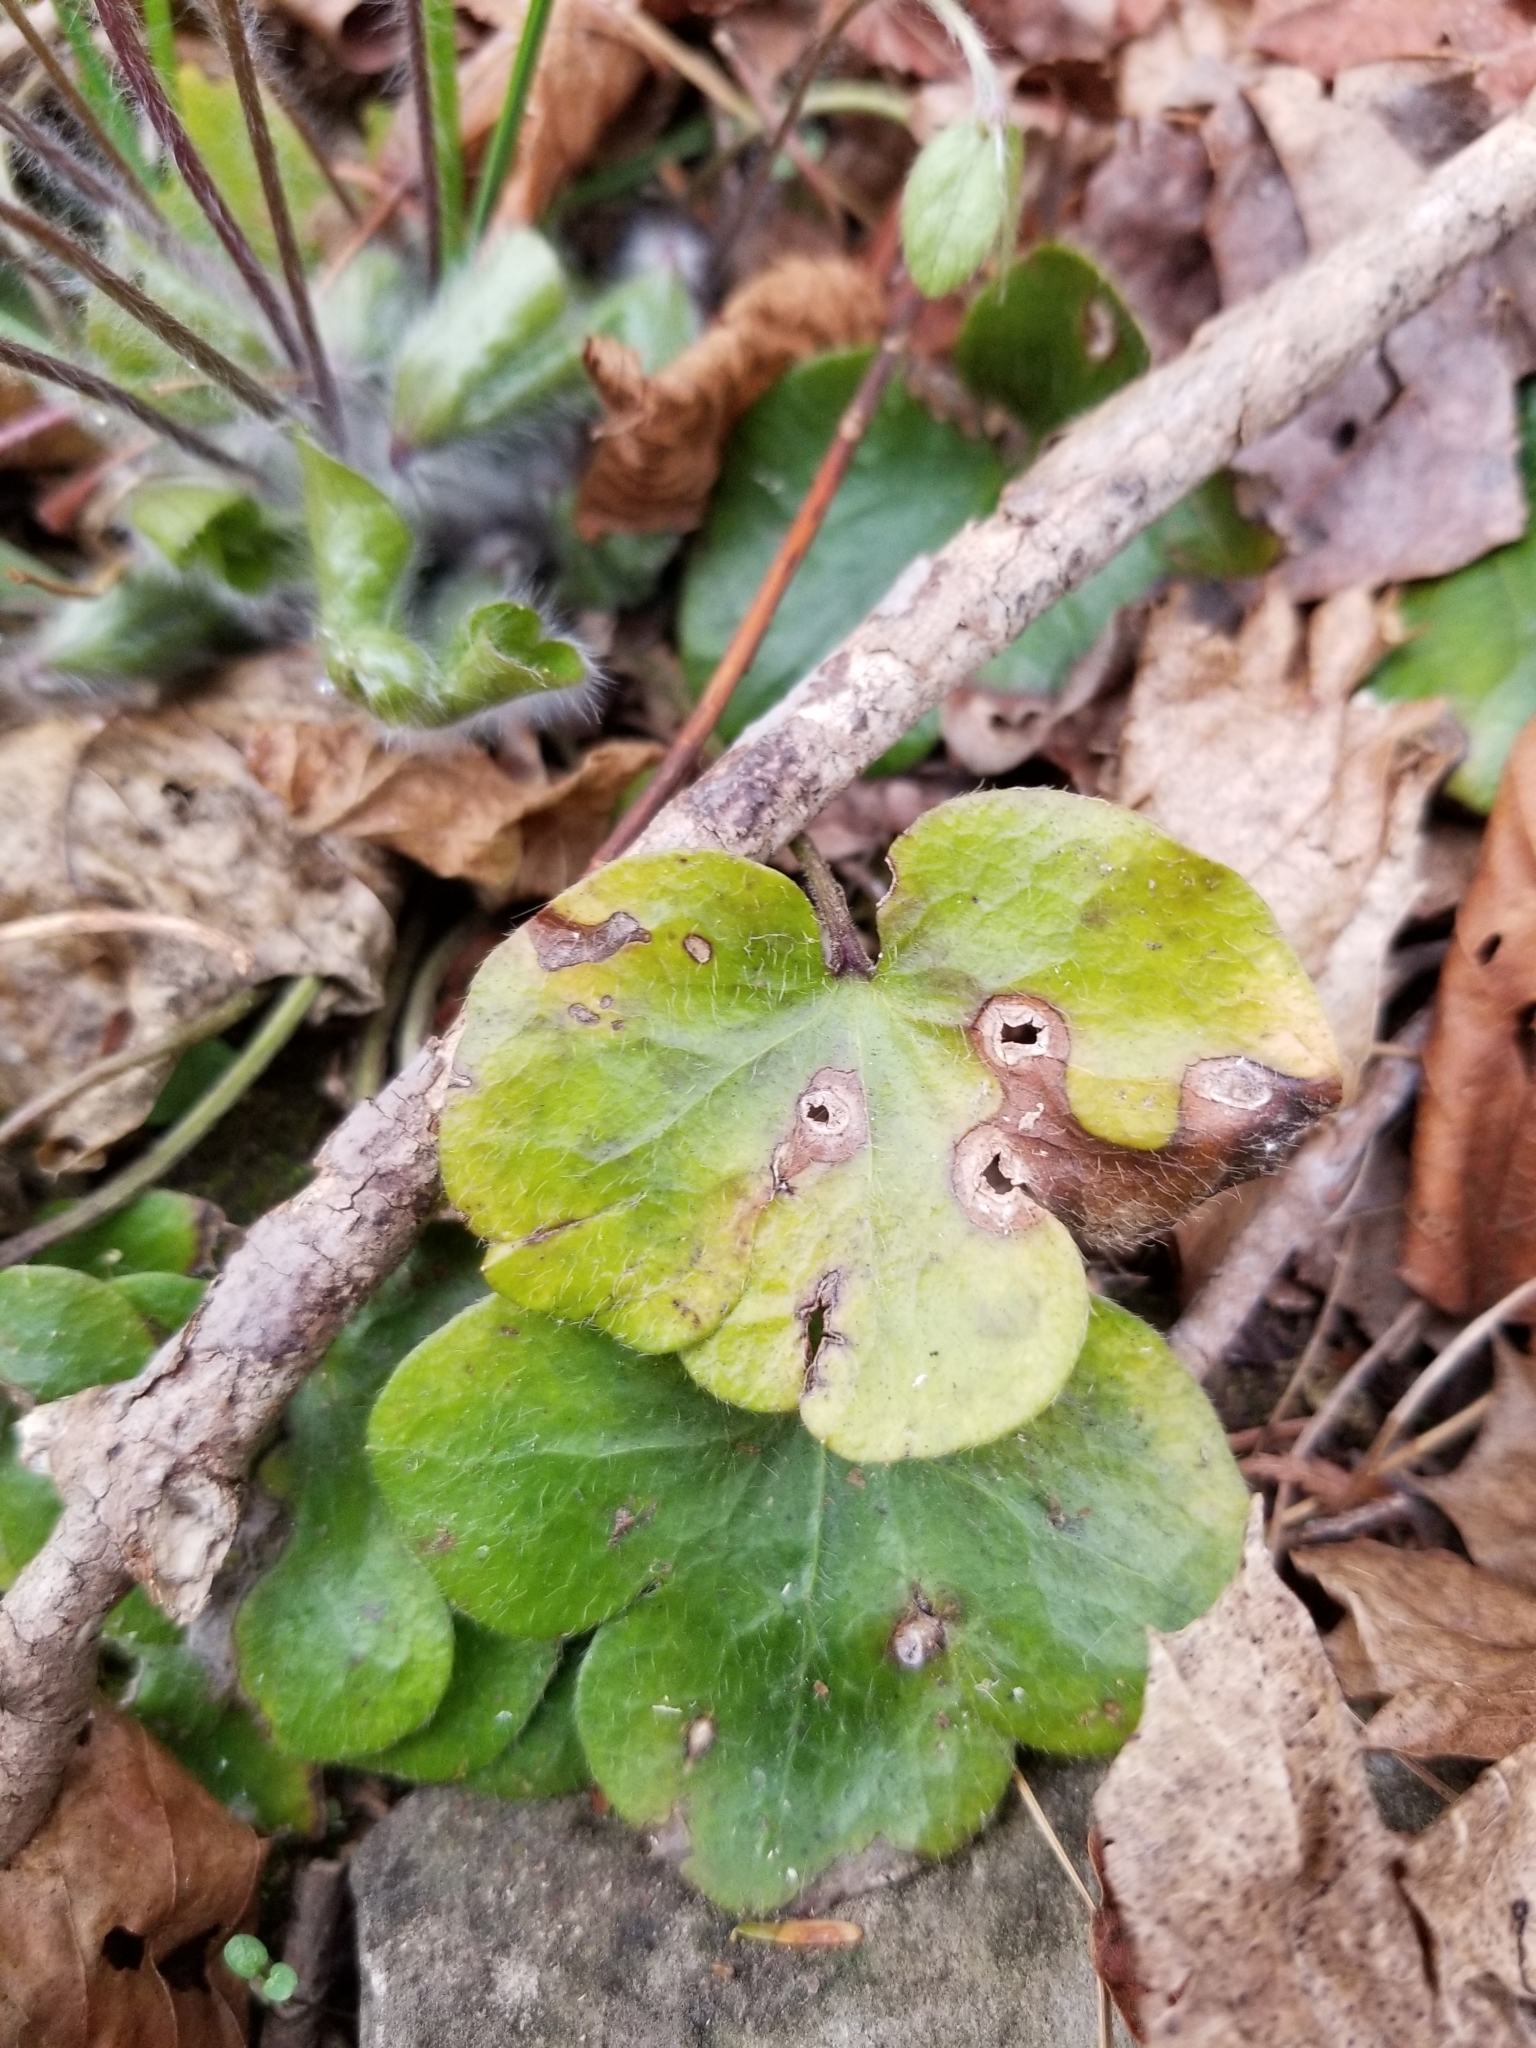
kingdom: Plantae
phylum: Tracheophyta
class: Magnoliopsida
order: Ranunculales
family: Ranunculaceae
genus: Hepatica
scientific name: Hepatica americana
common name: American hepatica
